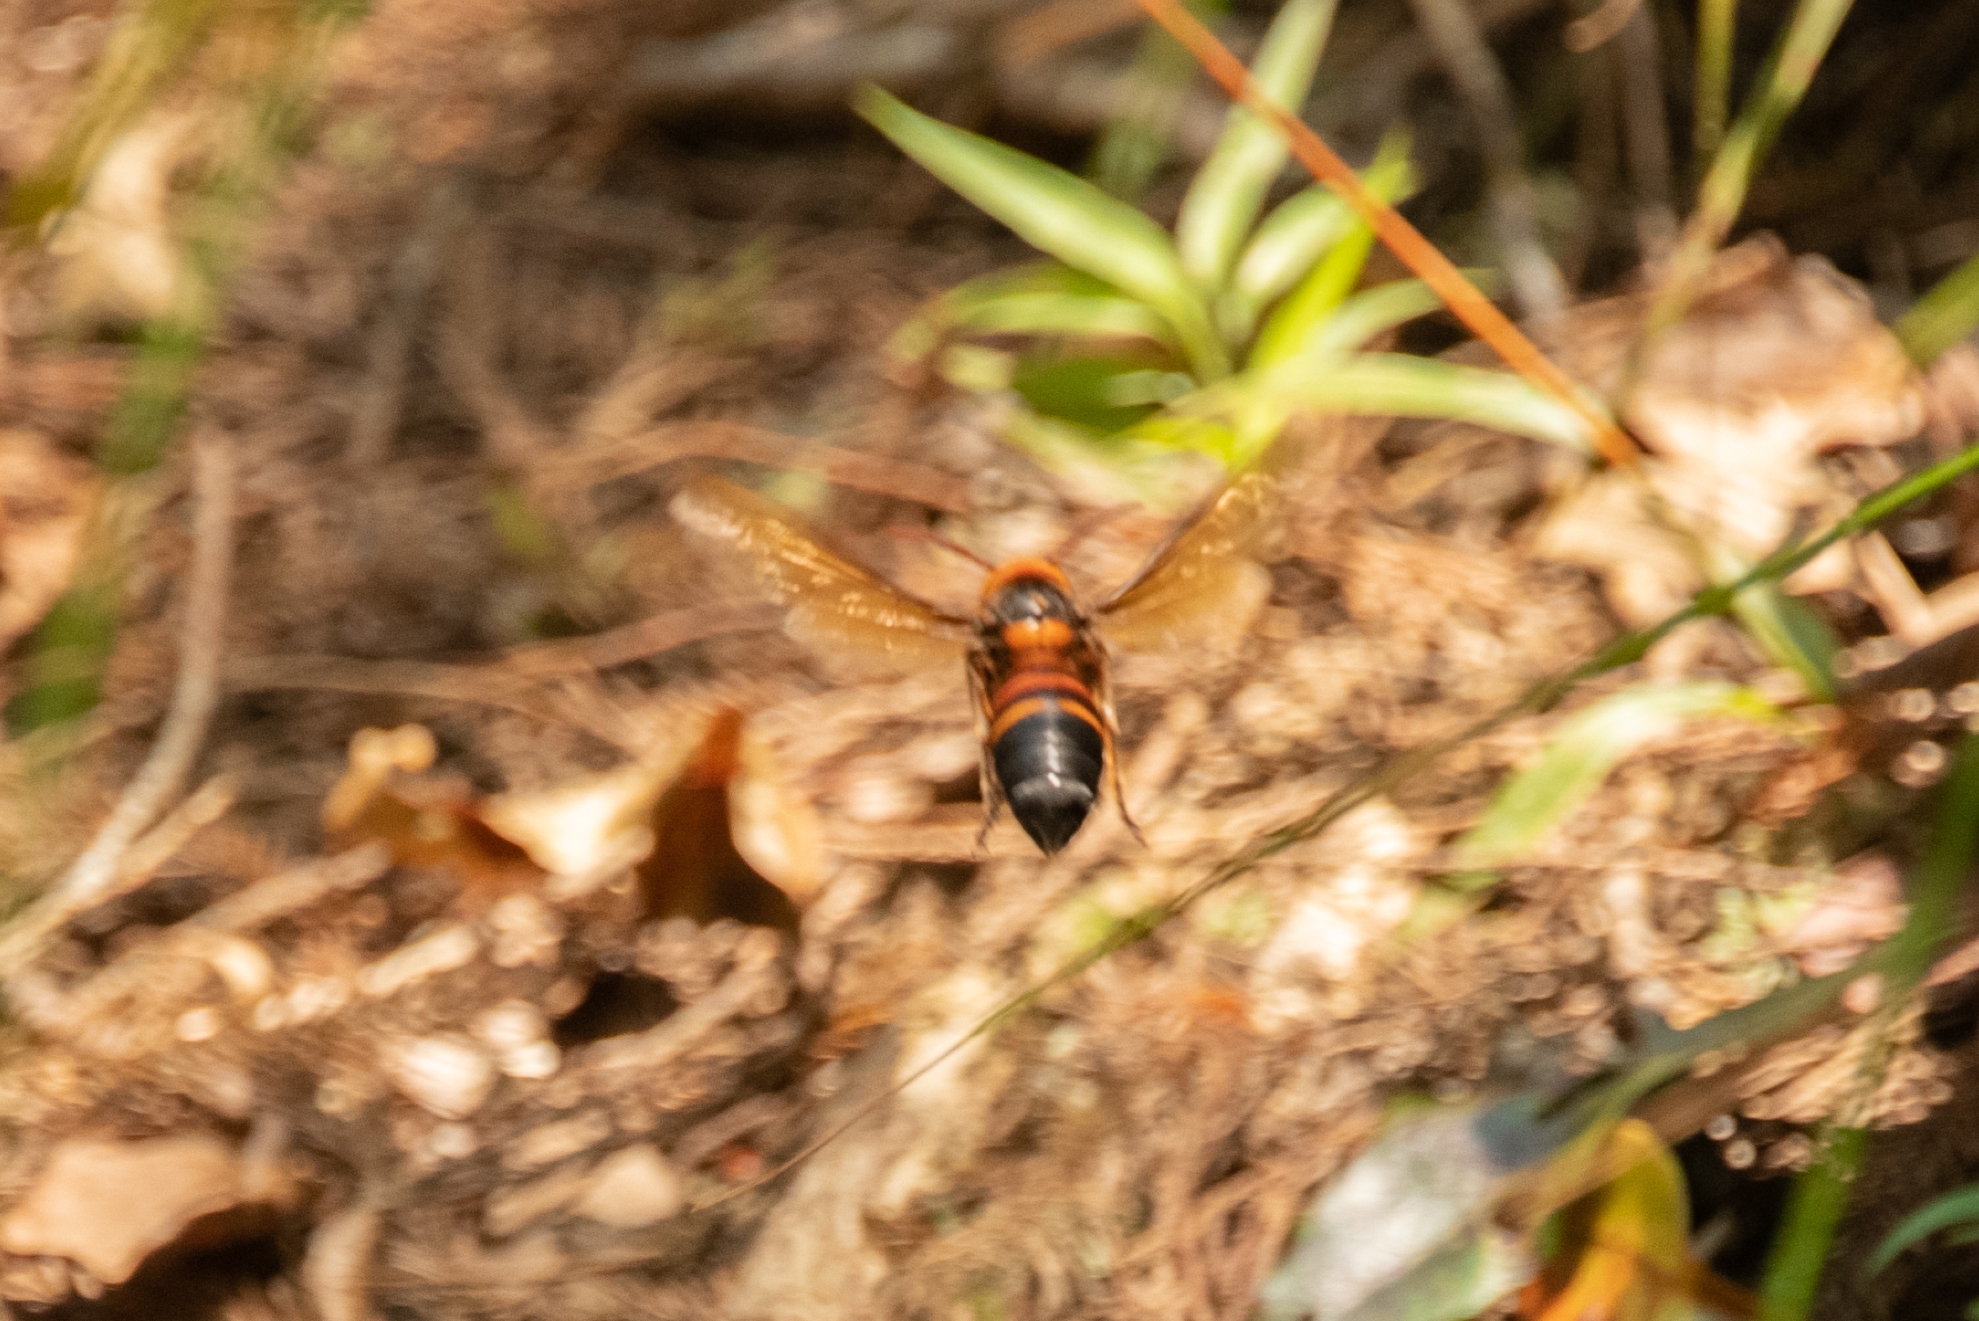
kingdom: Animalia
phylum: Arthropoda
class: Insecta
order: Hymenoptera
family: Vespidae
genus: Vespa
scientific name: Vespa ducalis
